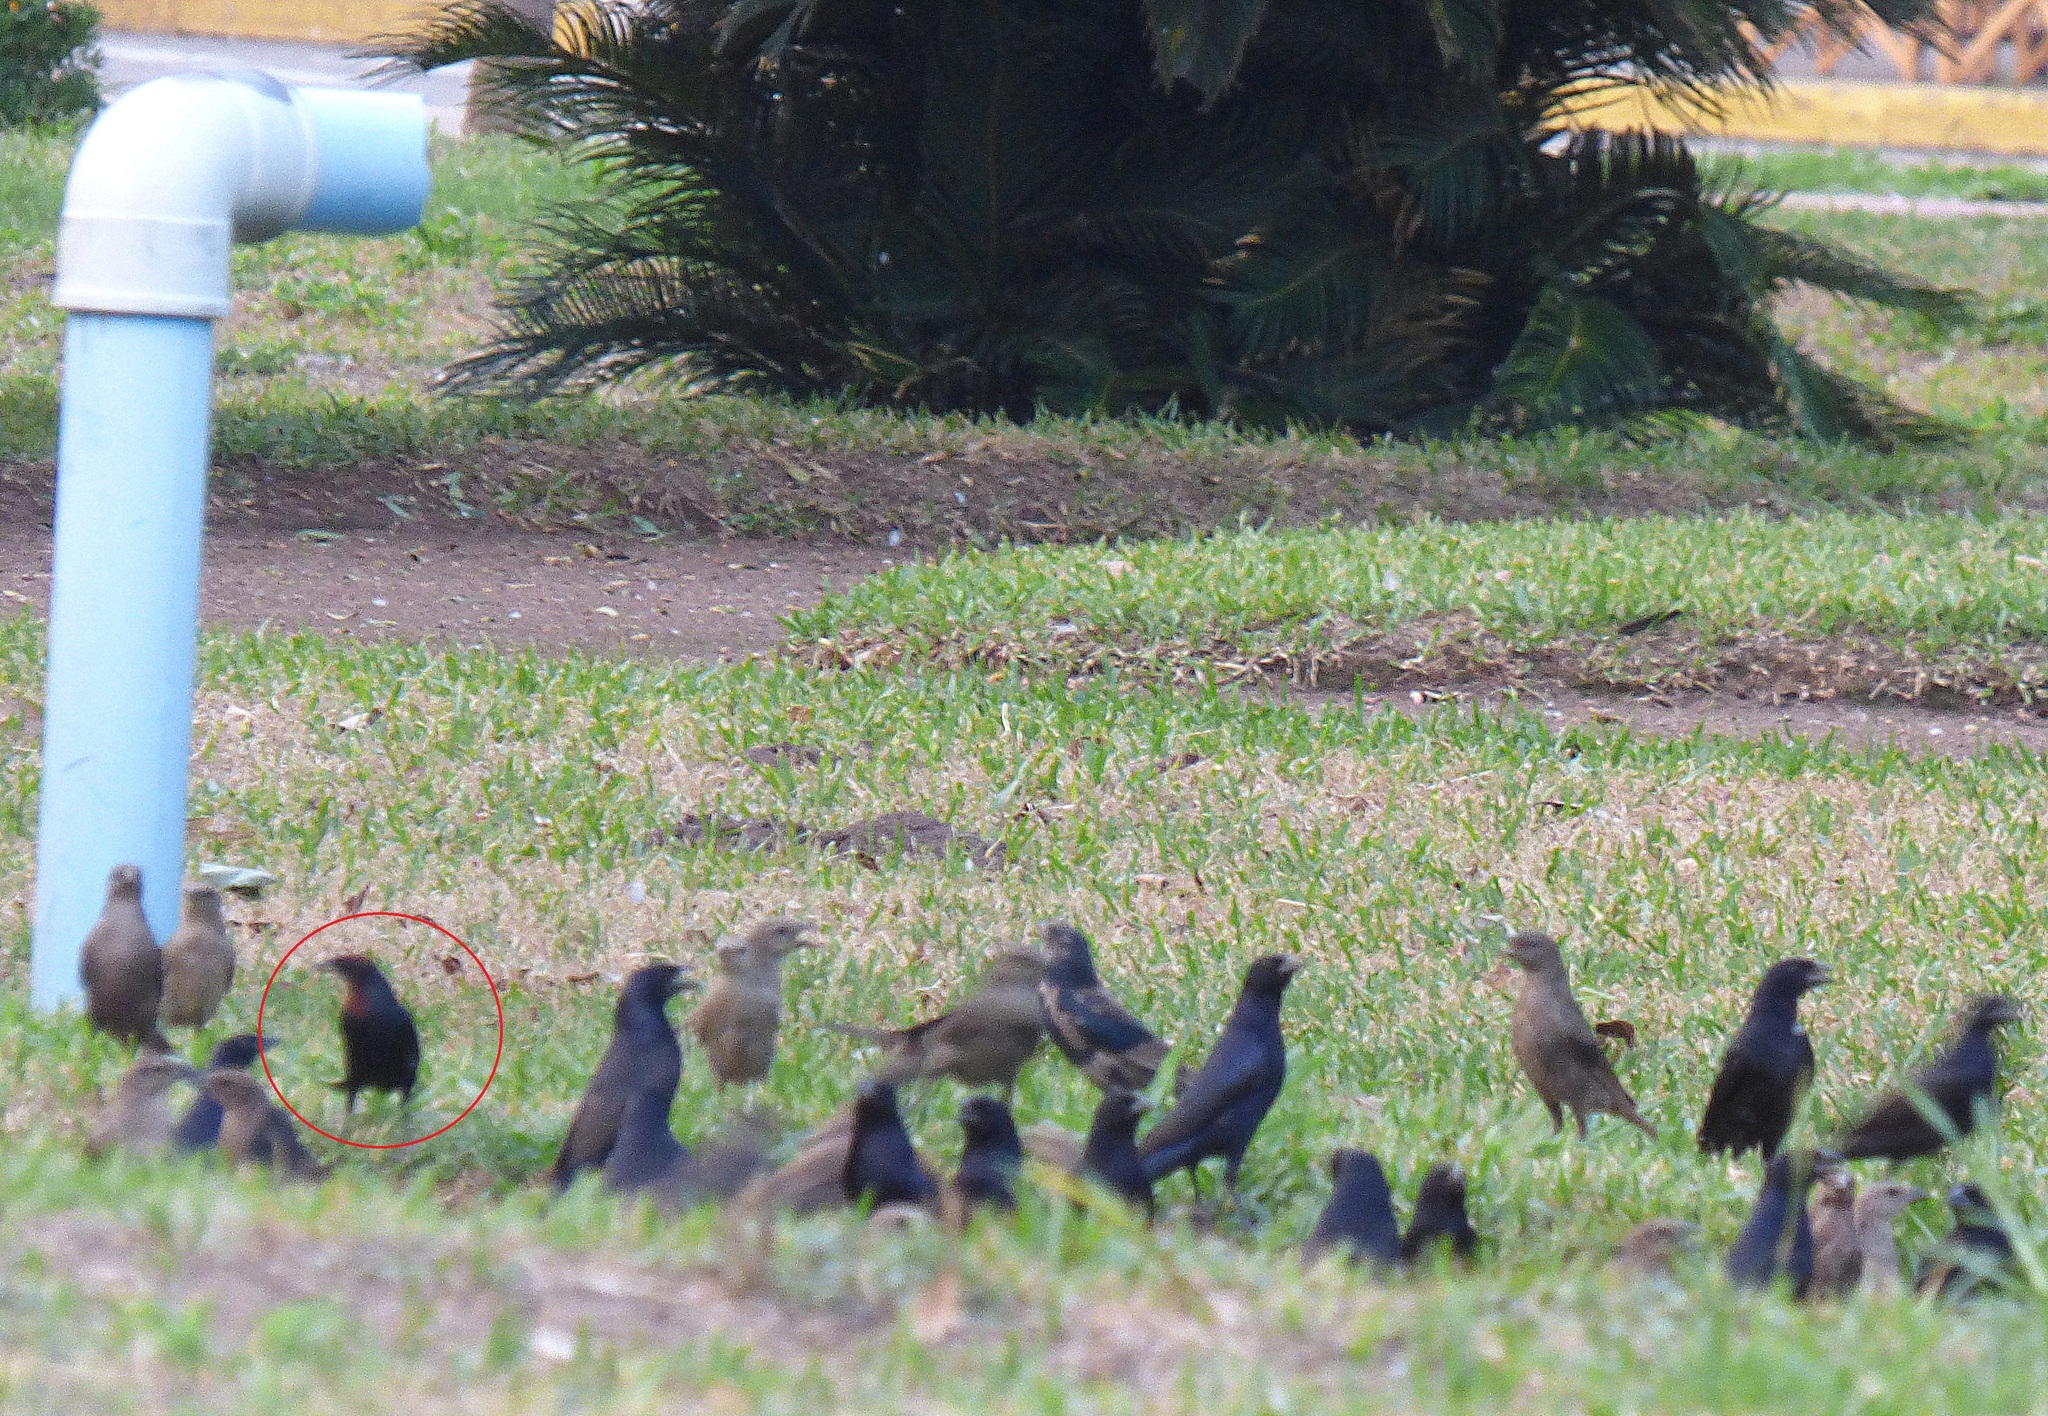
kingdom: Animalia
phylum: Chordata
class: Aves
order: Passeriformes
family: Icteridae
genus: Chrysomus
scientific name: Chrysomus ruficapillus
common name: Chestnut-capped blackbird
